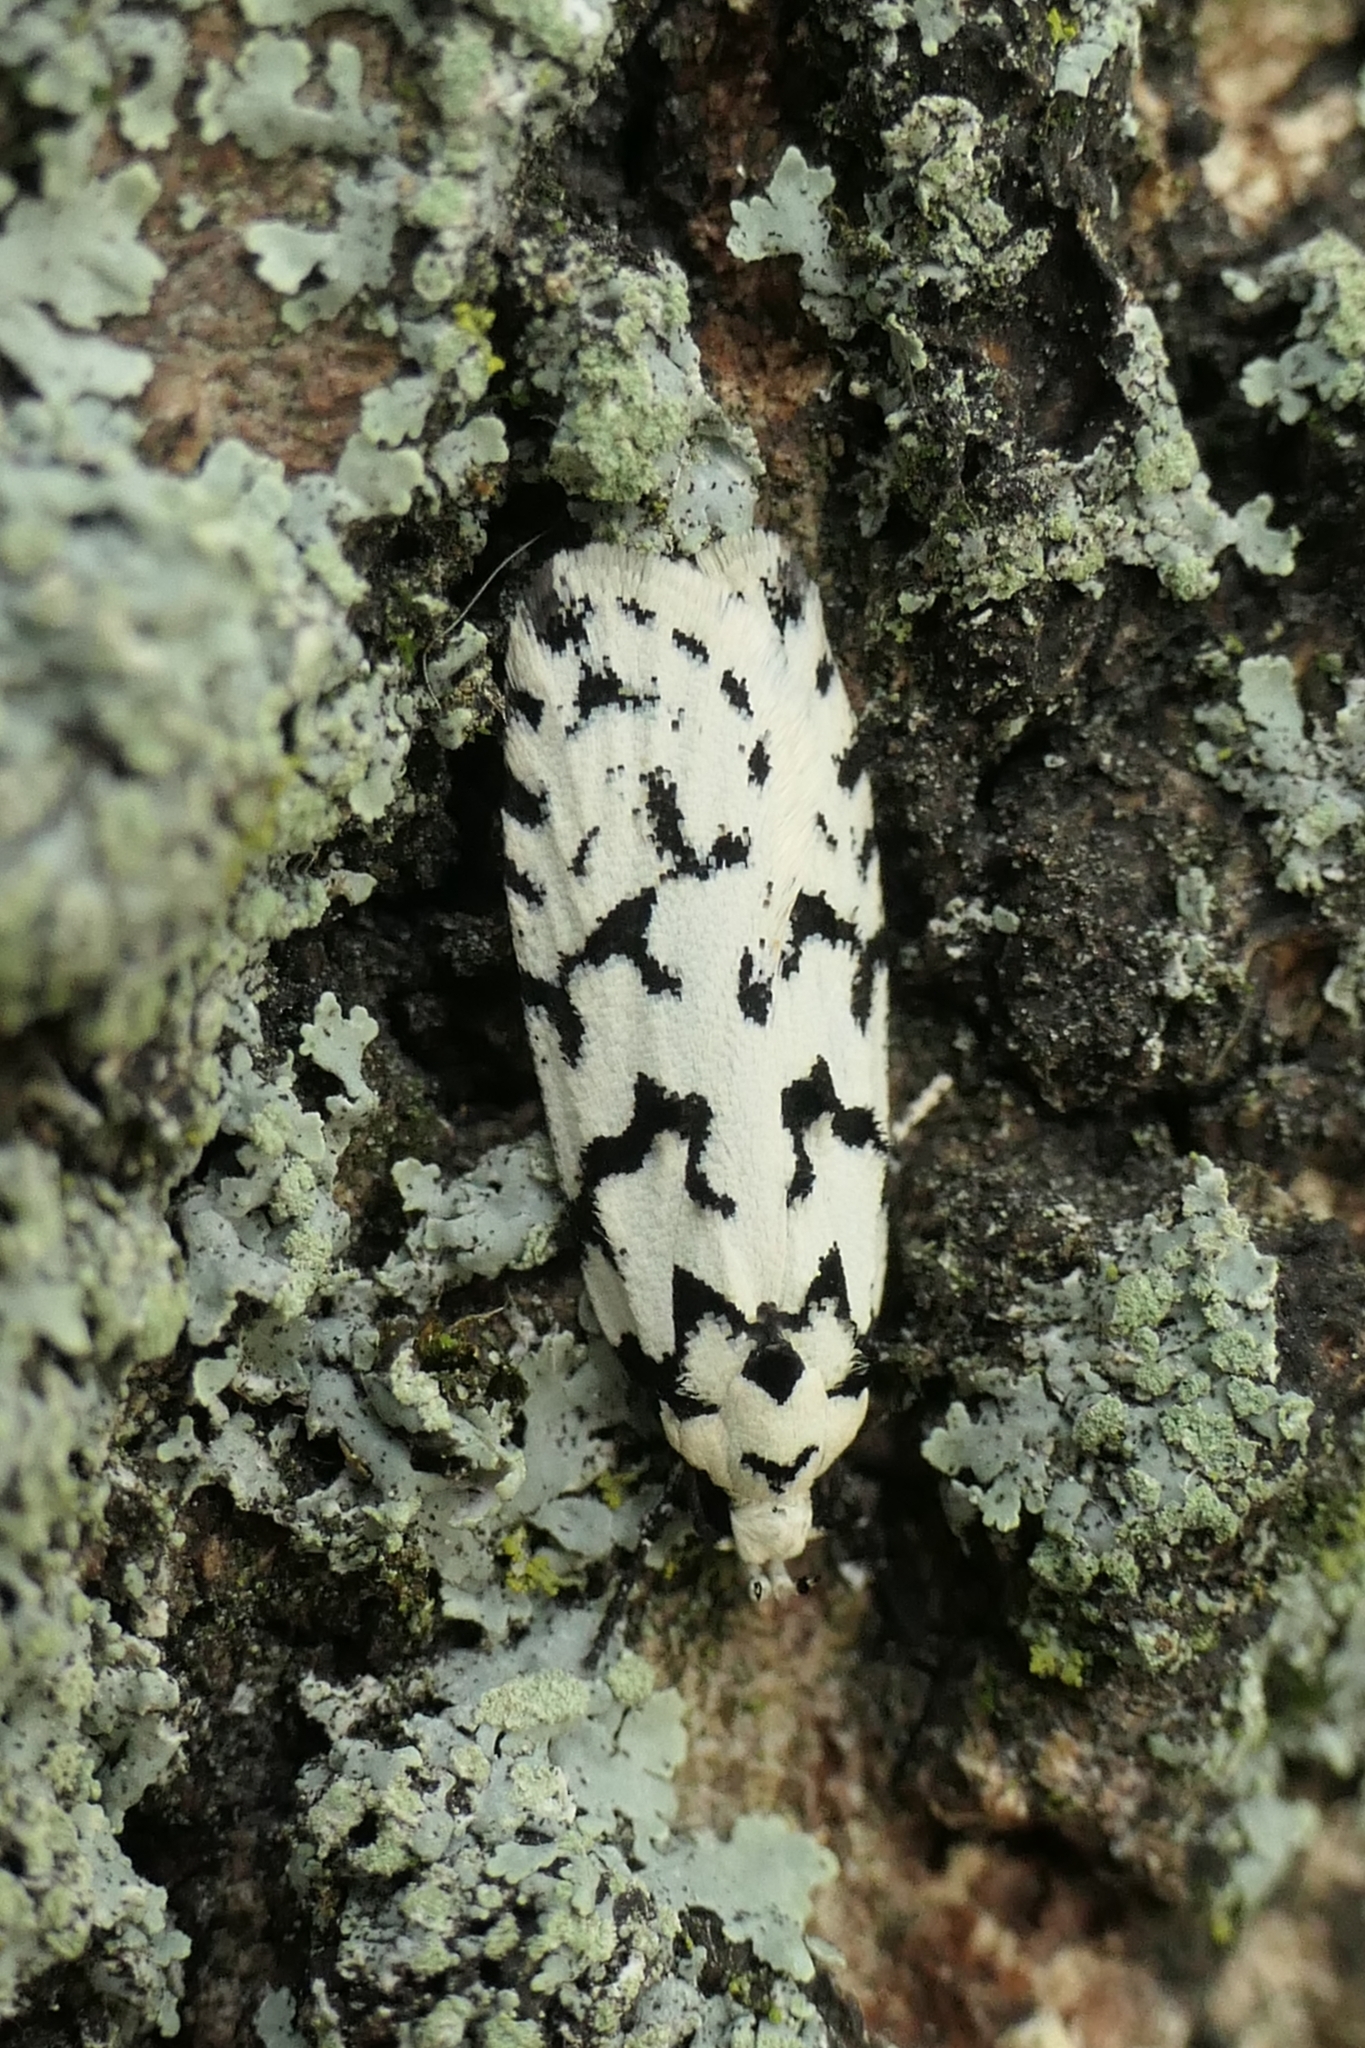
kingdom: Animalia
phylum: Arthropoda
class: Insecta
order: Lepidoptera
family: Oecophoridae
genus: Izatha
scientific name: Izatha katadiktya
